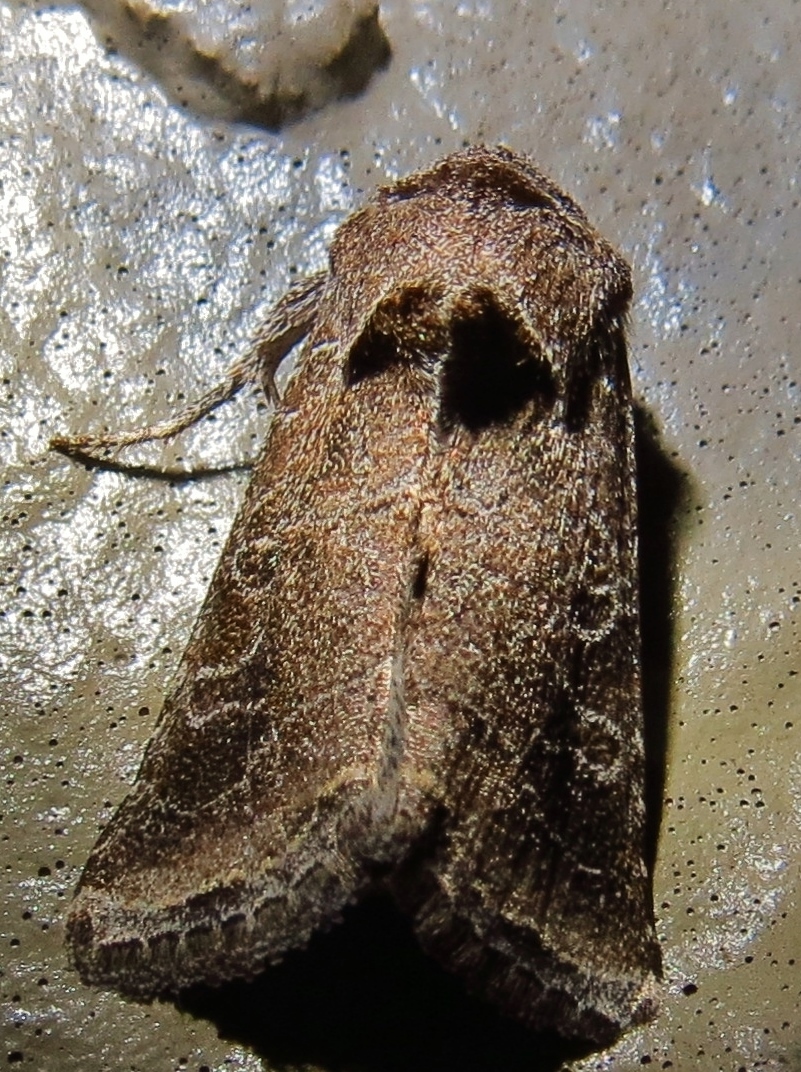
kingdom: Animalia
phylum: Arthropoda
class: Insecta
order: Lepidoptera
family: Noctuidae
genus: Lacinipolia
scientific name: Lacinipolia erecta
